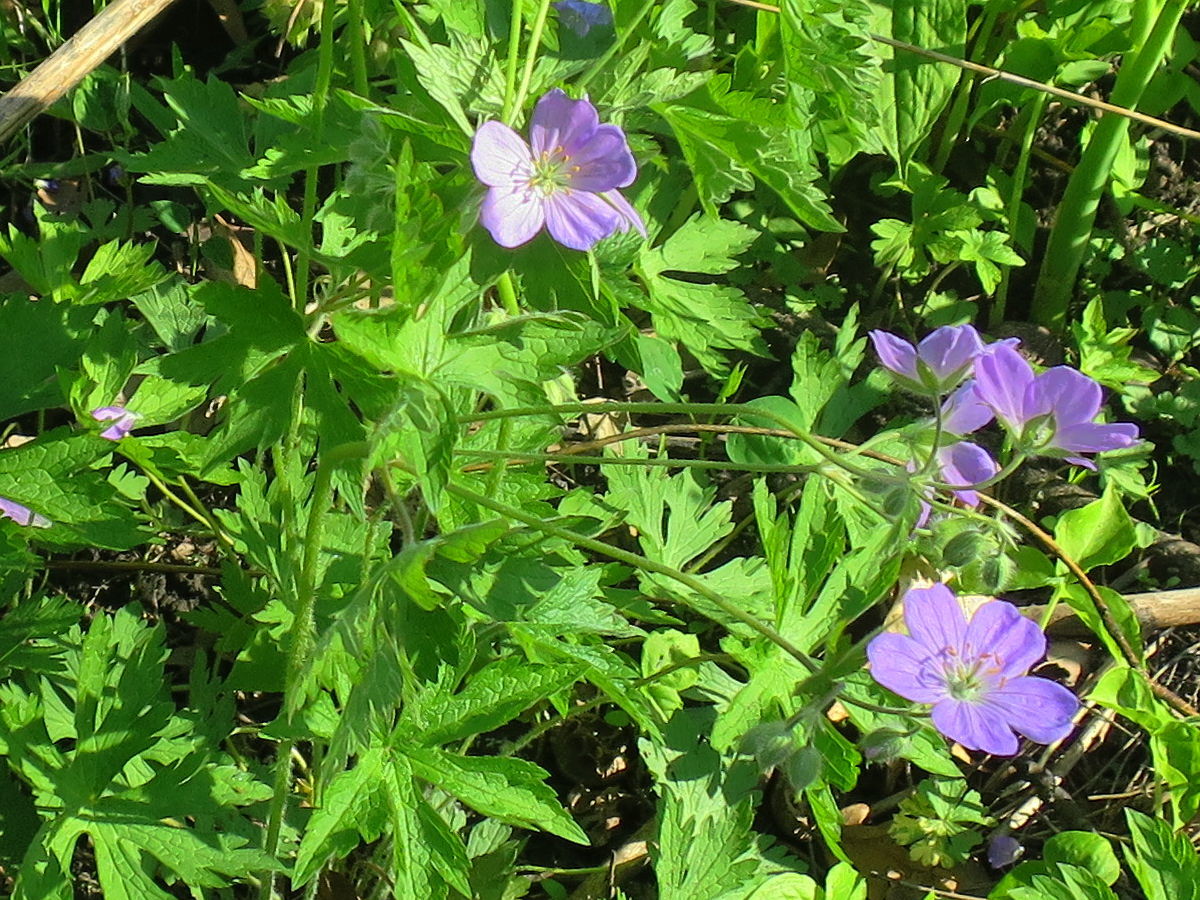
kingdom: Plantae
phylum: Tracheophyta
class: Magnoliopsida
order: Geraniales
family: Geraniaceae
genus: Geranium
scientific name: Geranium maculatum
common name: Spotted geranium
